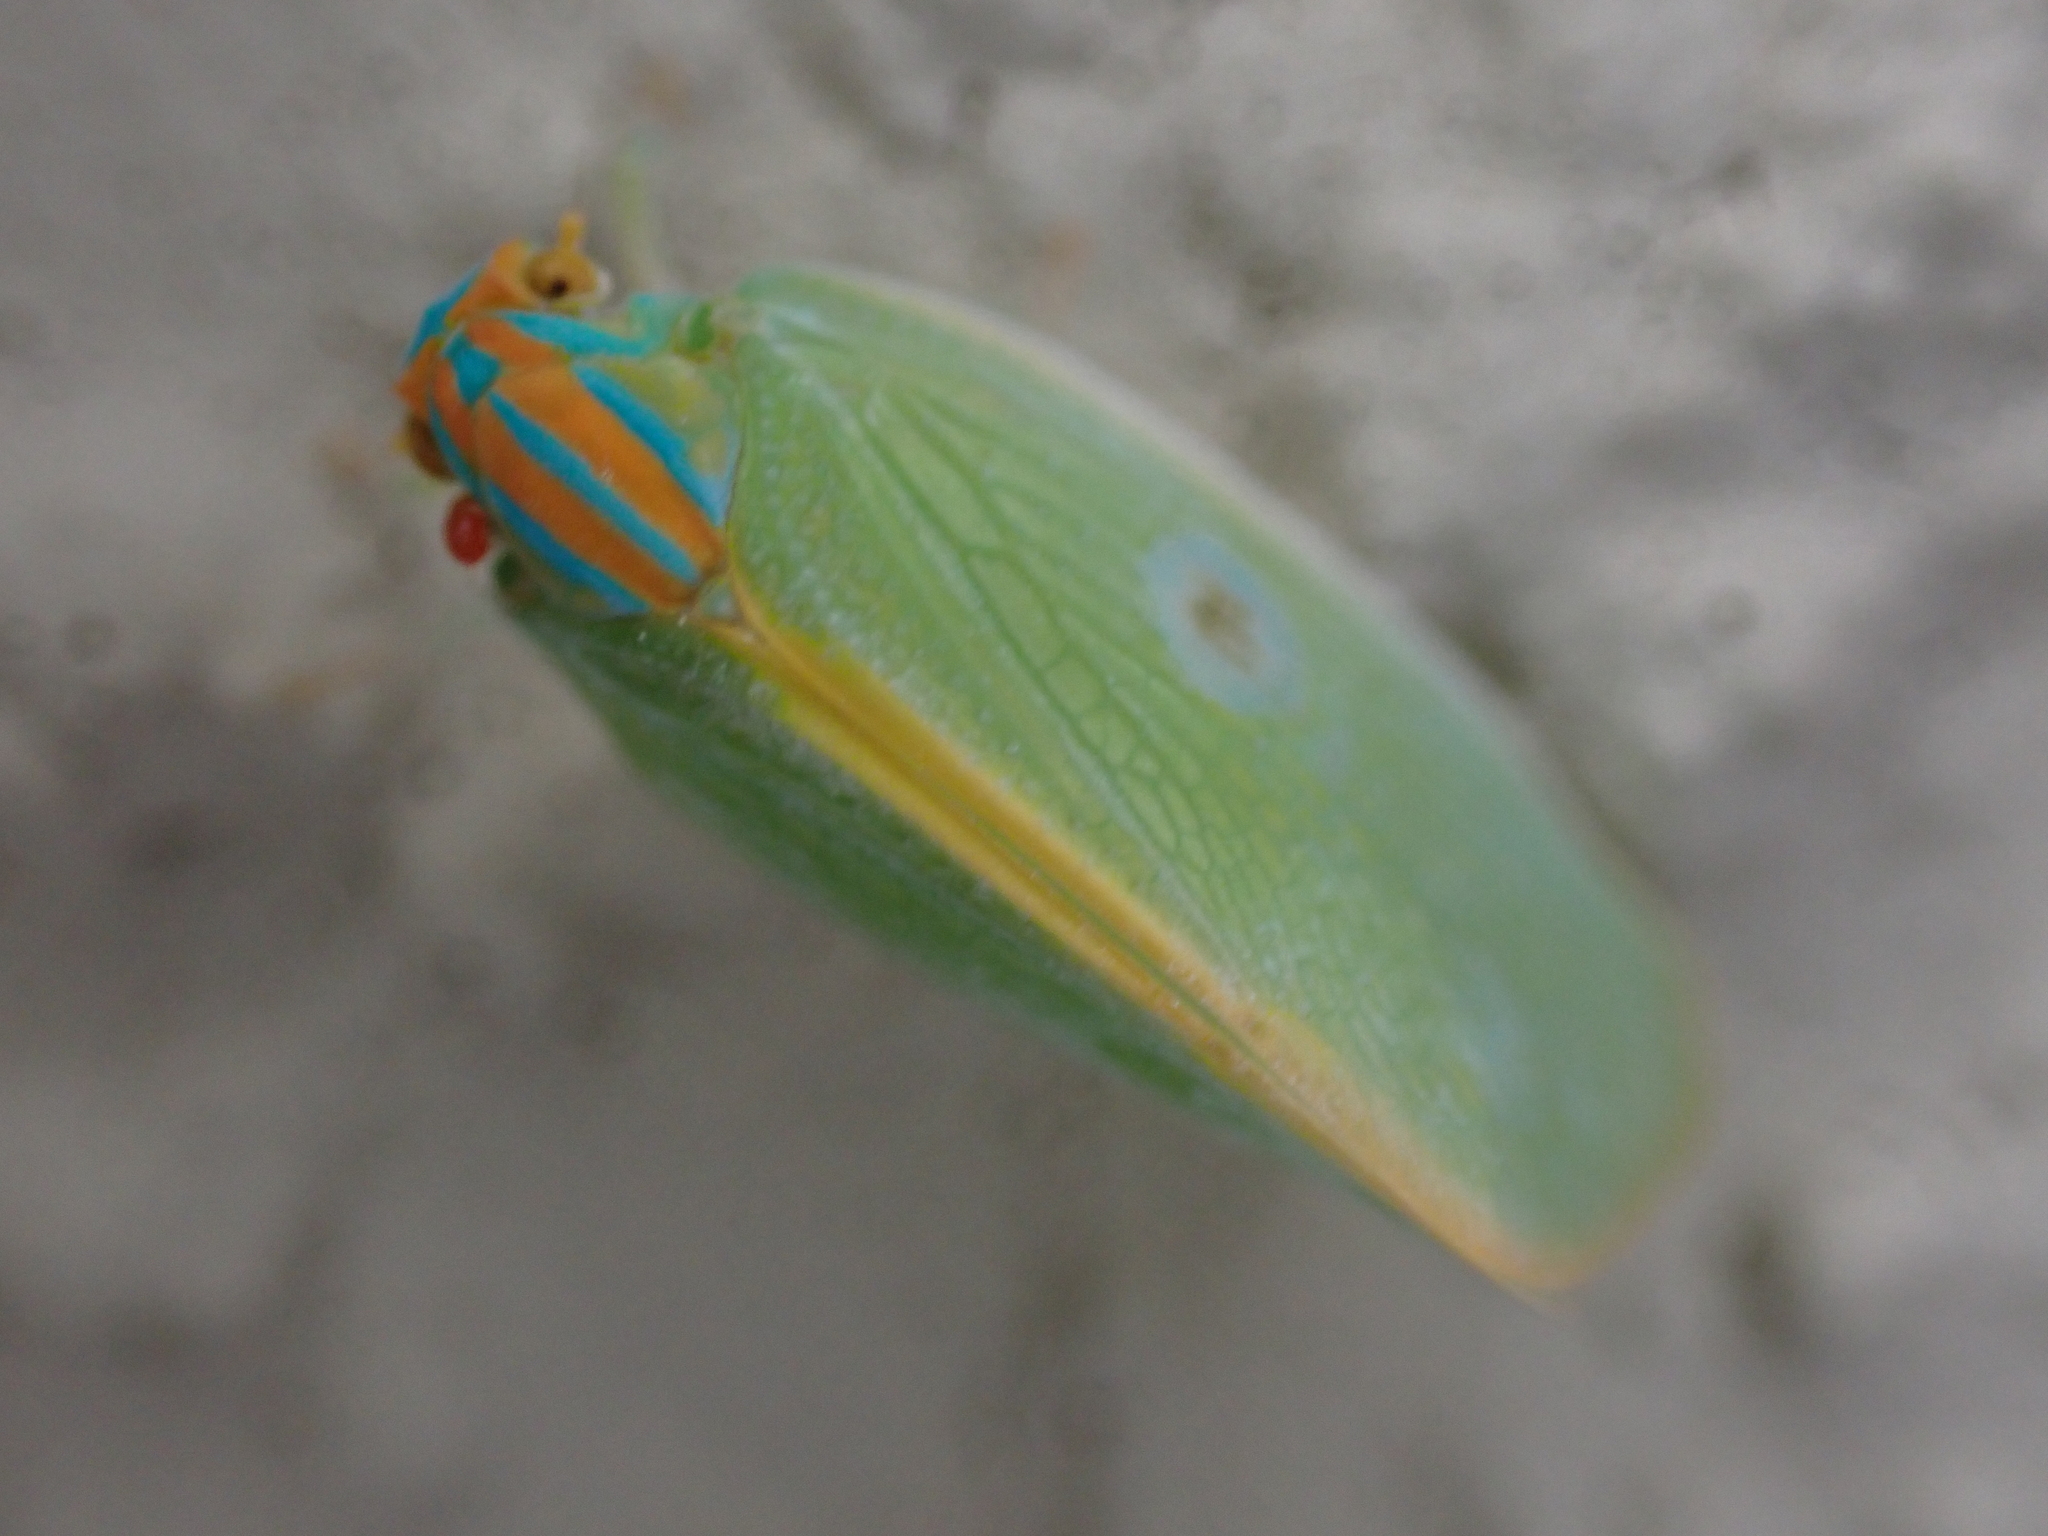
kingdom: Animalia
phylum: Arthropoda
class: Insecta
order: Hemiptera
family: Flatidae
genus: Ormenaria
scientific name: Ormenaria rufifascia
